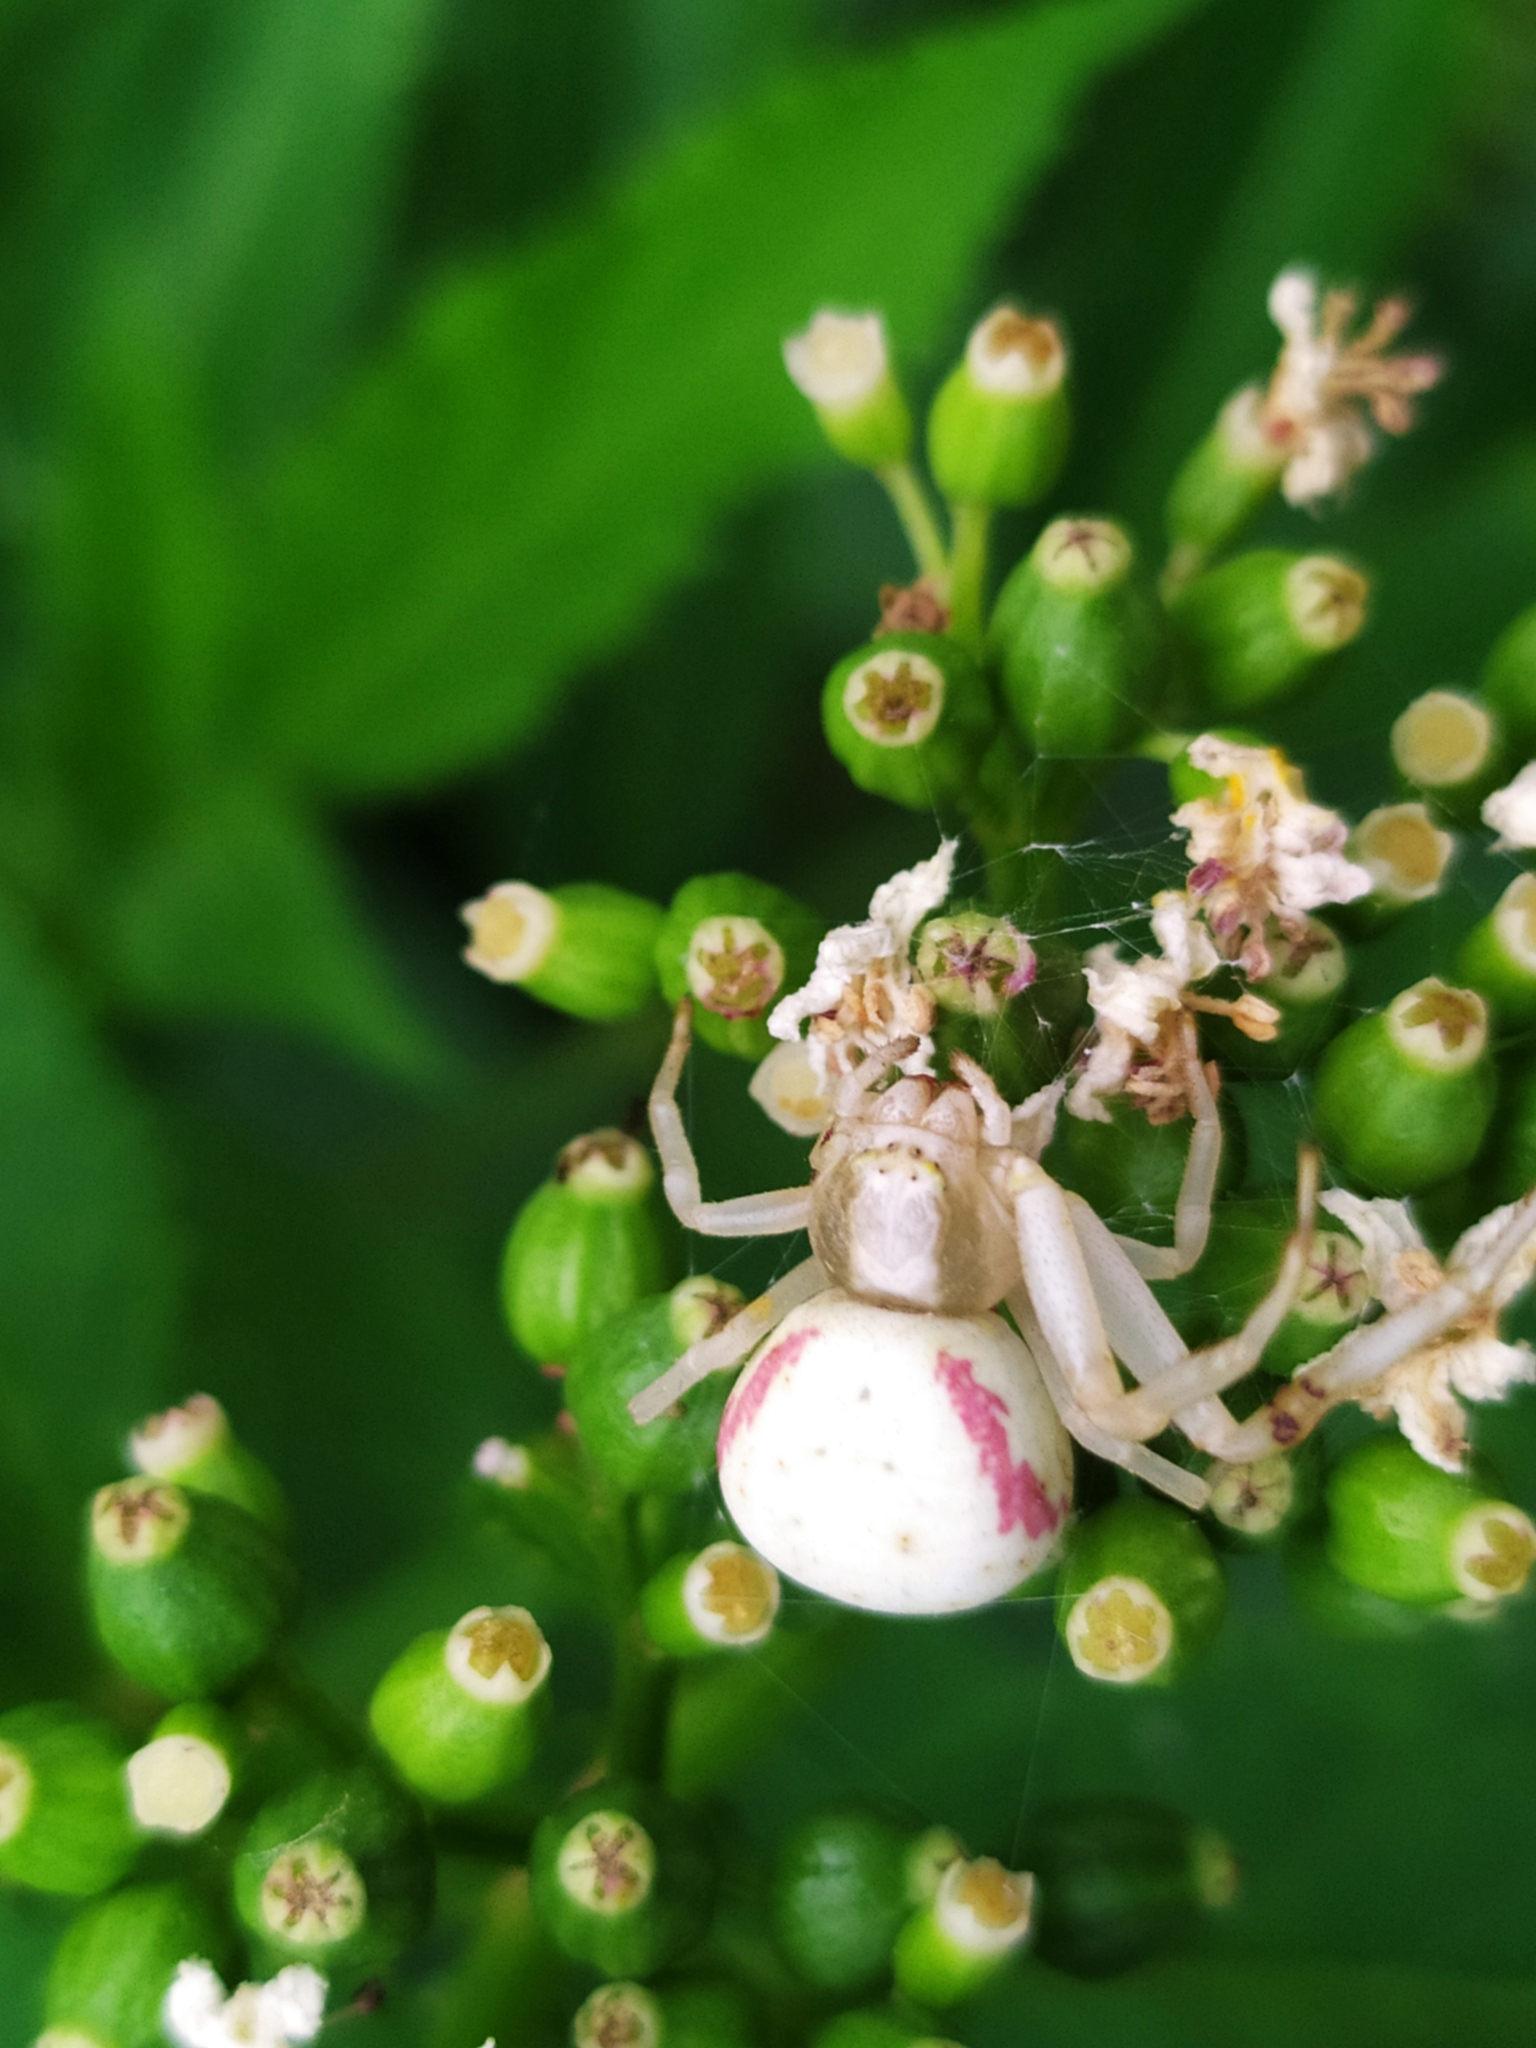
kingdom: Animalia
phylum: Arthropoda
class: Arachnida
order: Araneae
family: Thomisidae
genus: Misumena
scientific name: Misumena vatia
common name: Goldenrod crab spider
